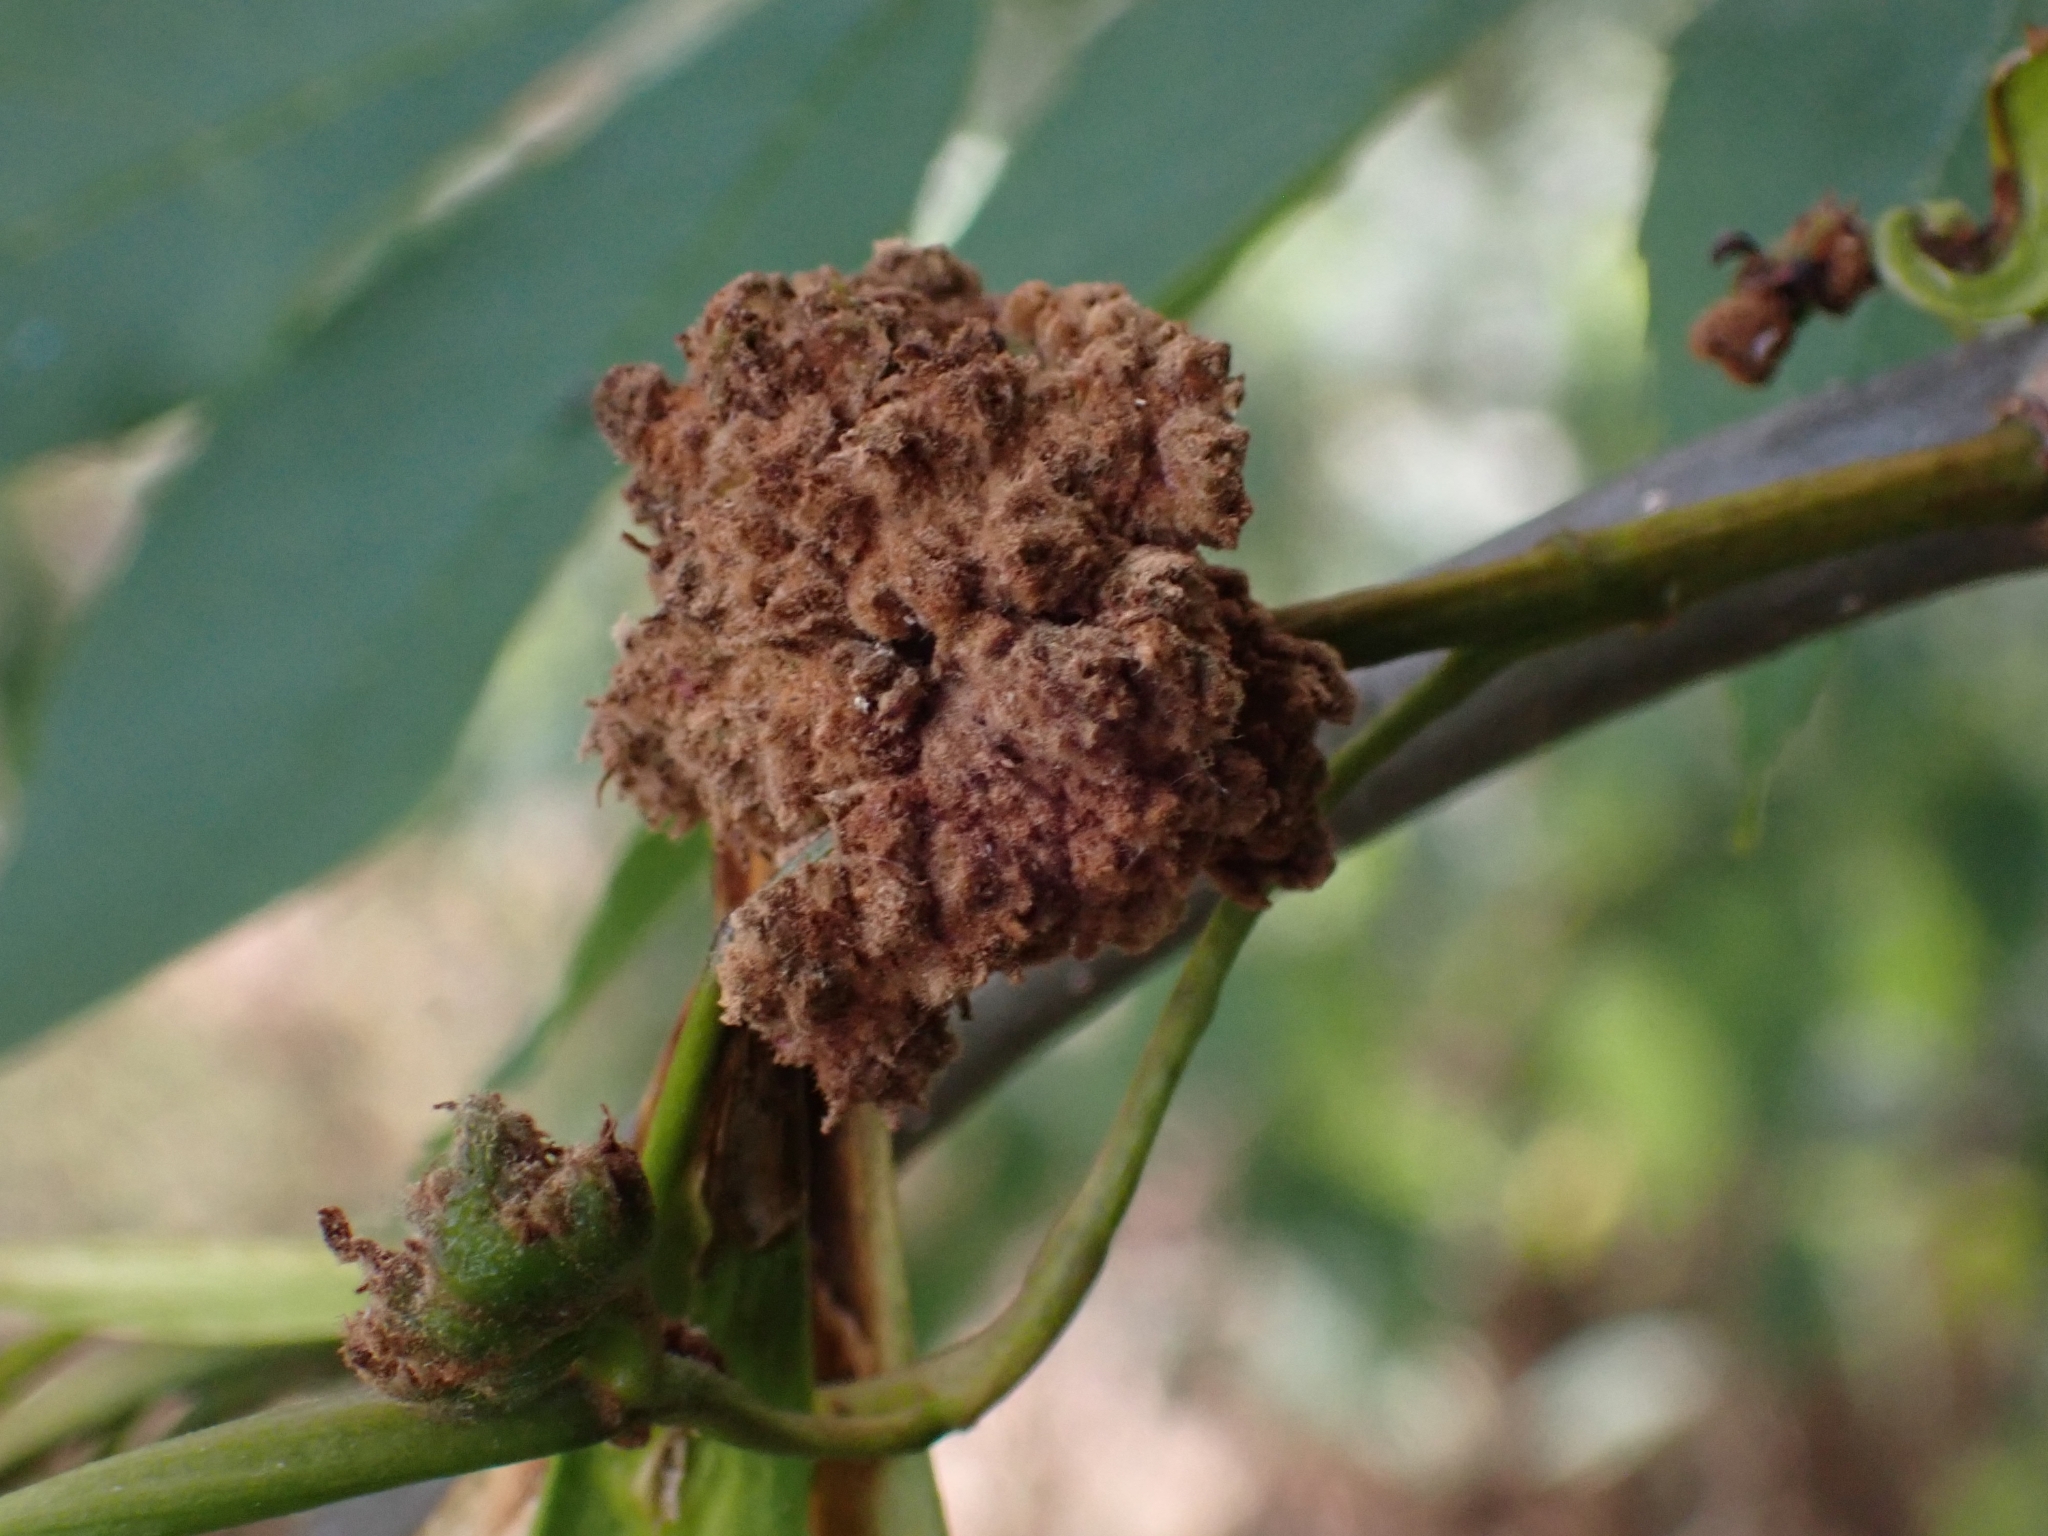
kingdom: Animalia
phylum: Arthropoda
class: Arachnida
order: Trombidiformes
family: Eriophyidae
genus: Aceria
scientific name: Aceria fraxinivora
